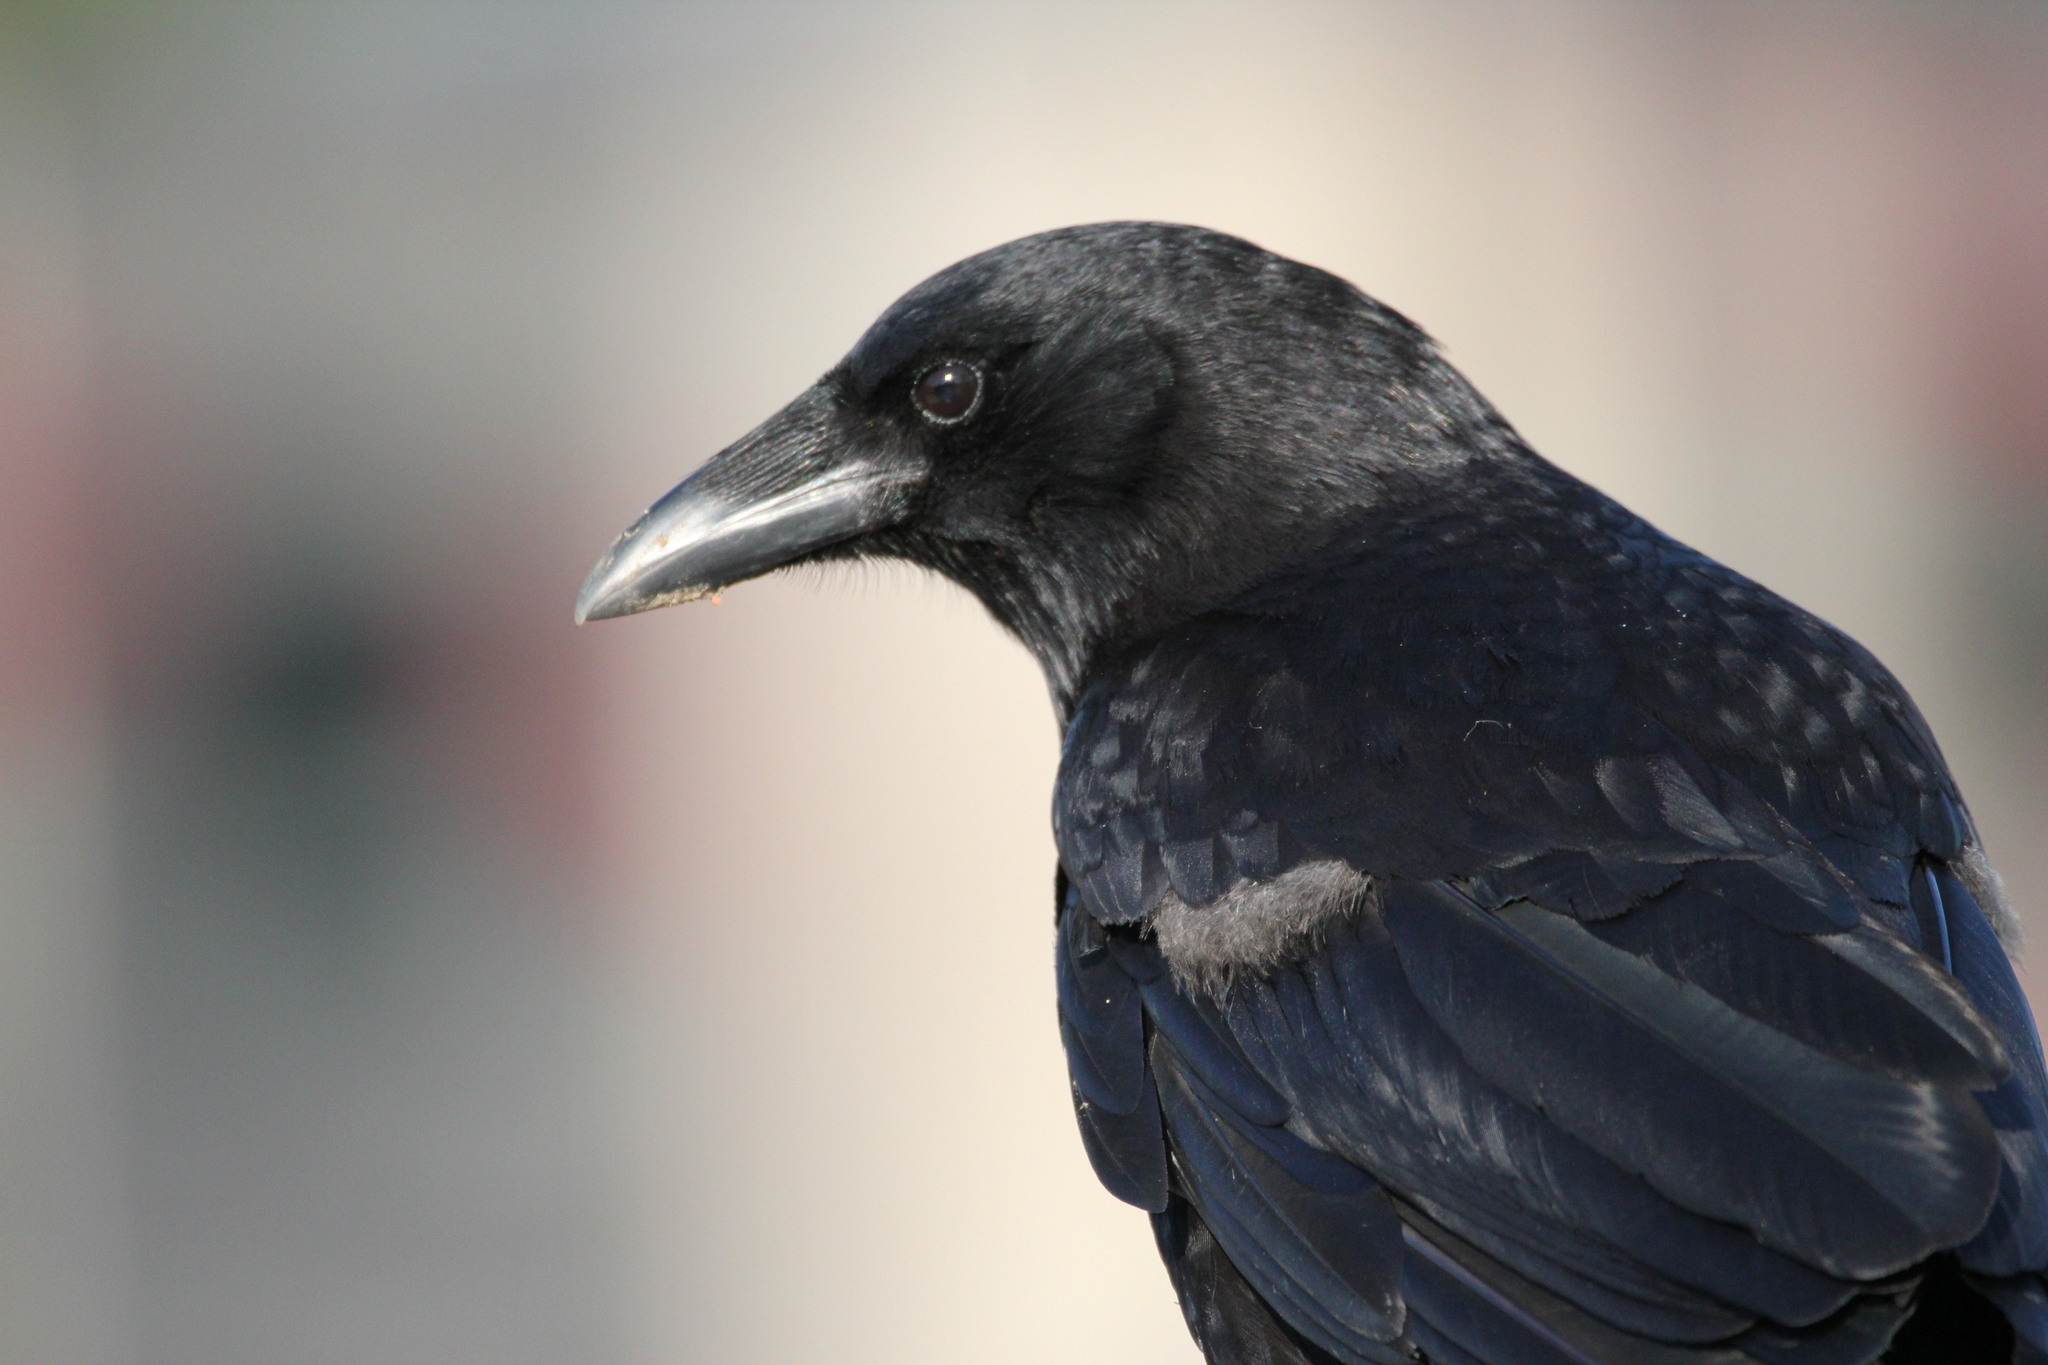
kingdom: Animalia
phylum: Chordata
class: Aves
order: Passeriformes
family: Corvidae
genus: Corvus
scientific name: Corvus brachyrhynchos
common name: American crow
